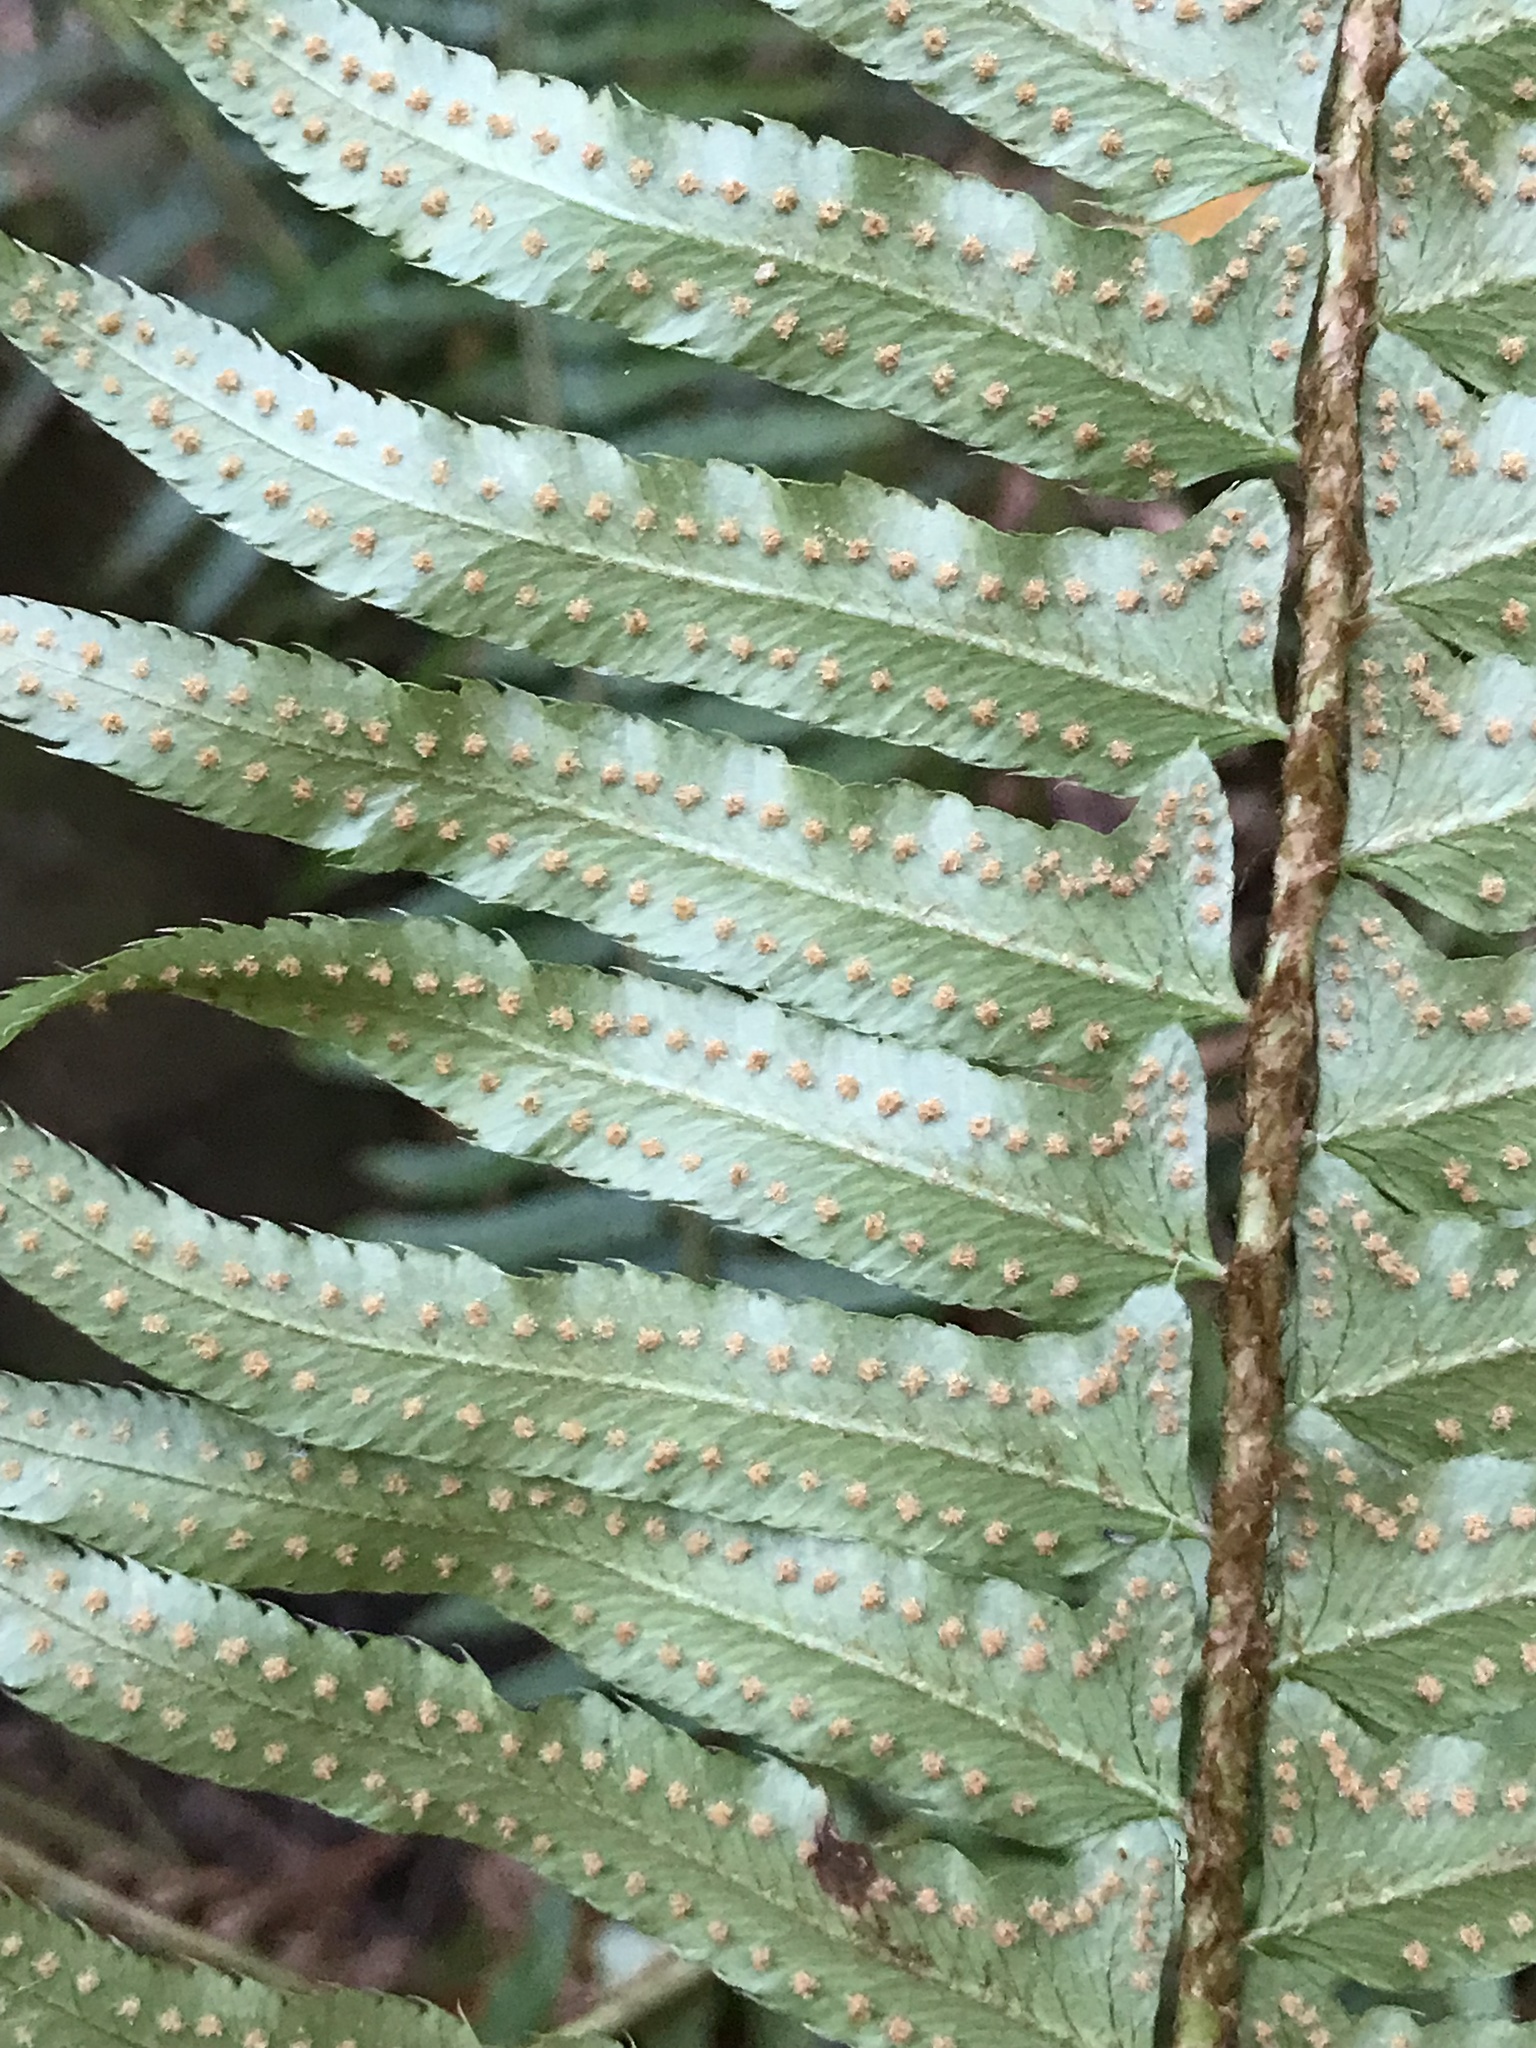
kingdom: Plantae
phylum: Tracheophyta
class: Polypodiopsida
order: Polypodiales
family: Dryopteridaceae
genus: Polystichum
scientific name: Polystichum munitum
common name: Western sword-fern
